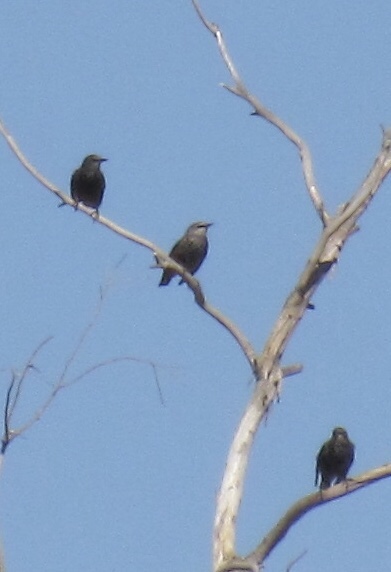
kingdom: Animalia
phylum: Chordata
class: Aves
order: Passeriformes
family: Sturnidae
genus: Sturnus
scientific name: Sturnus vulgaris
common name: Common starling
